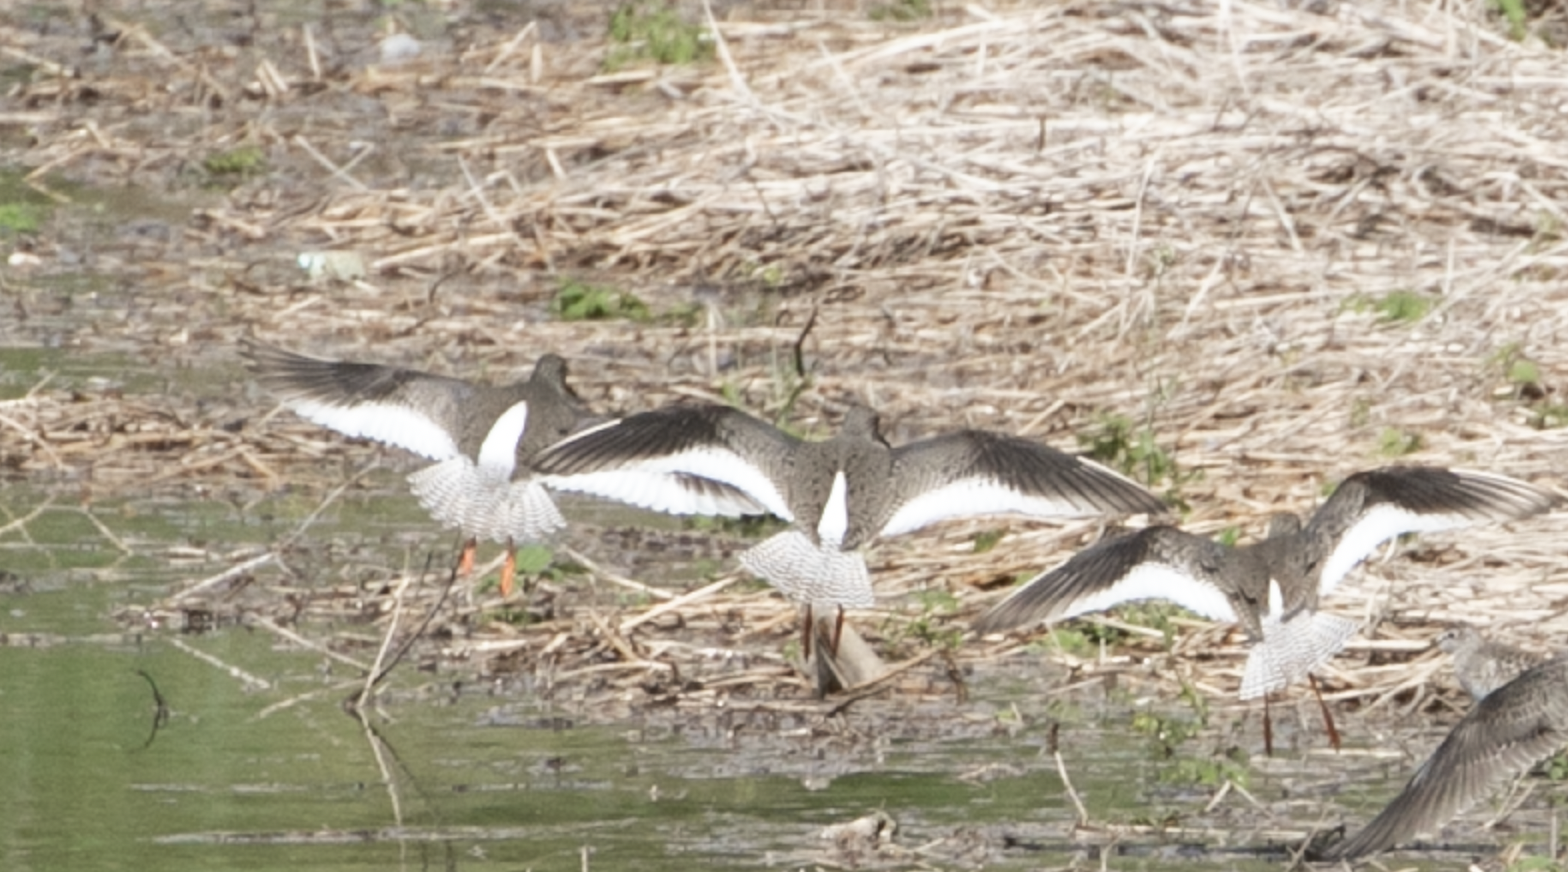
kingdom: Animalia
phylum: Chordata
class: Aves
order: Charadriiformes
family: Scolopacidae
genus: Tringa
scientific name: Tringa totanus
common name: Common redshank
